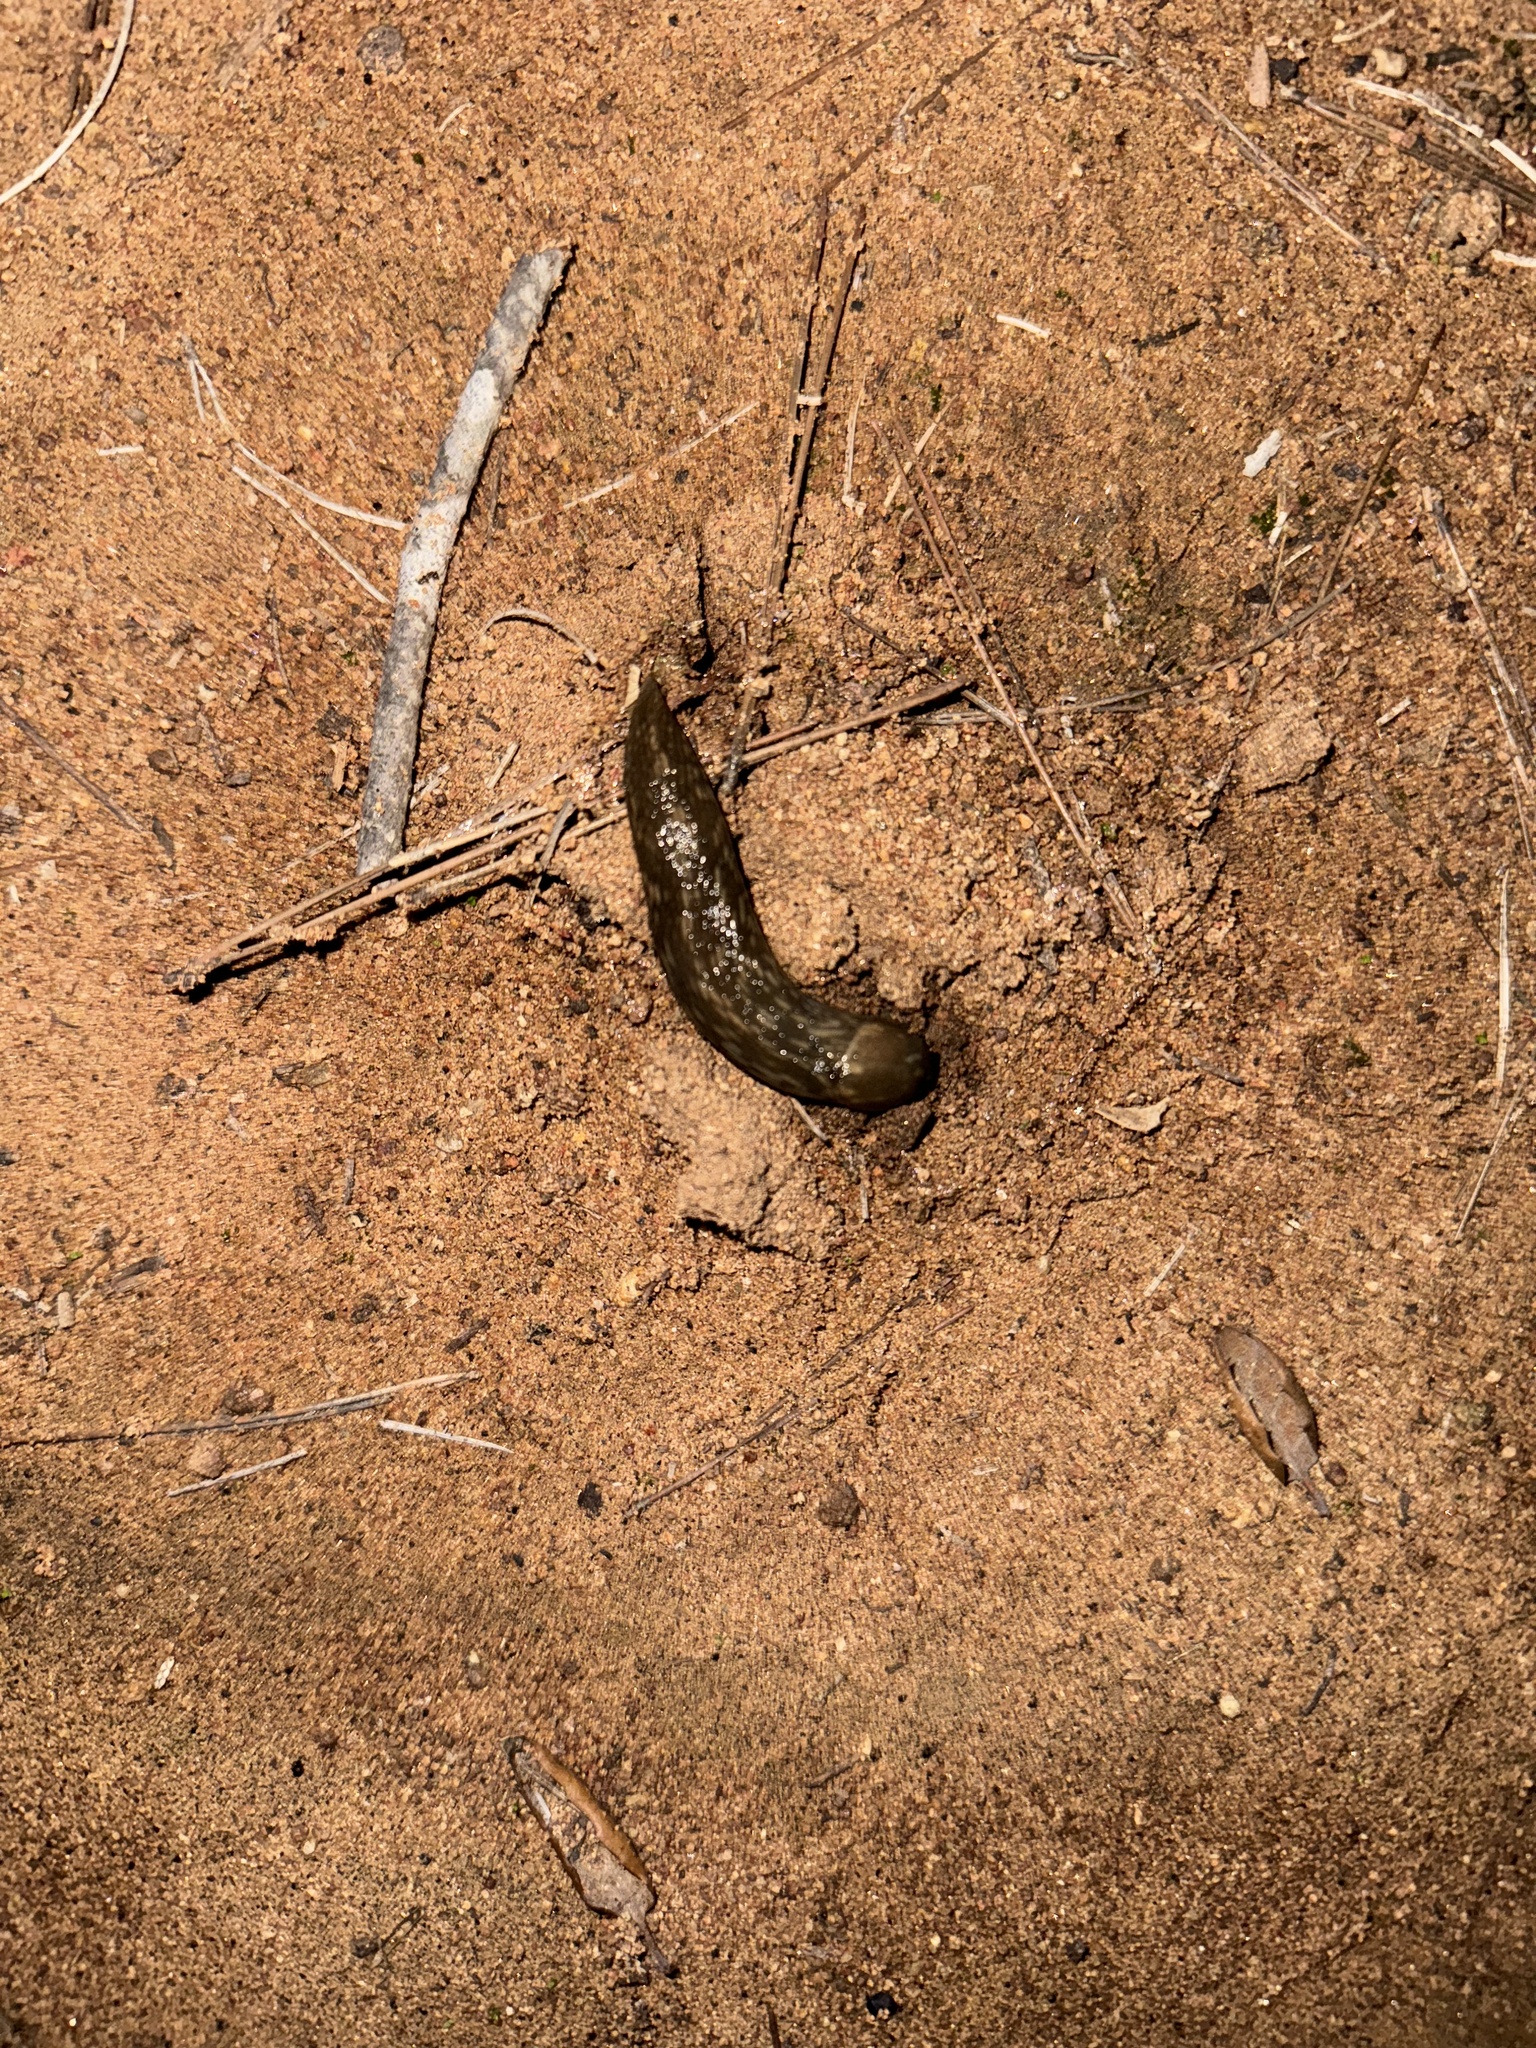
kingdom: Animalia
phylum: Mollusca
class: Gastropoda
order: Stylommatophora
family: Limacidae
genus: Limacus
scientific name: Limacus flavus
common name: Yellow gardenslug
